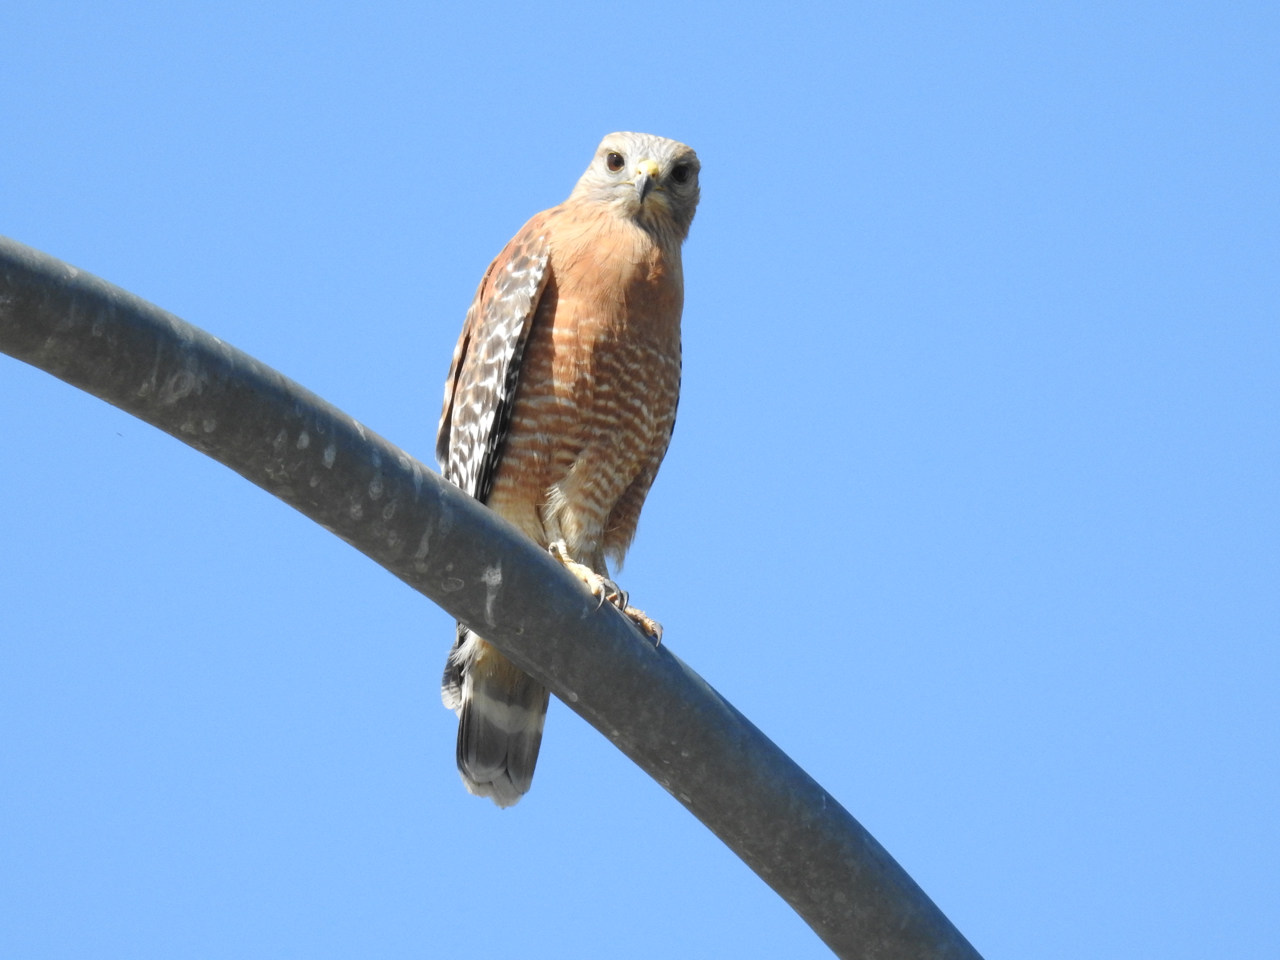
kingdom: Animalia
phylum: Chordata
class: Aves
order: Accipitriformes
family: Accipitridae
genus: Buteo
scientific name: Buteo lineatus
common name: Red-shouldered hawk
